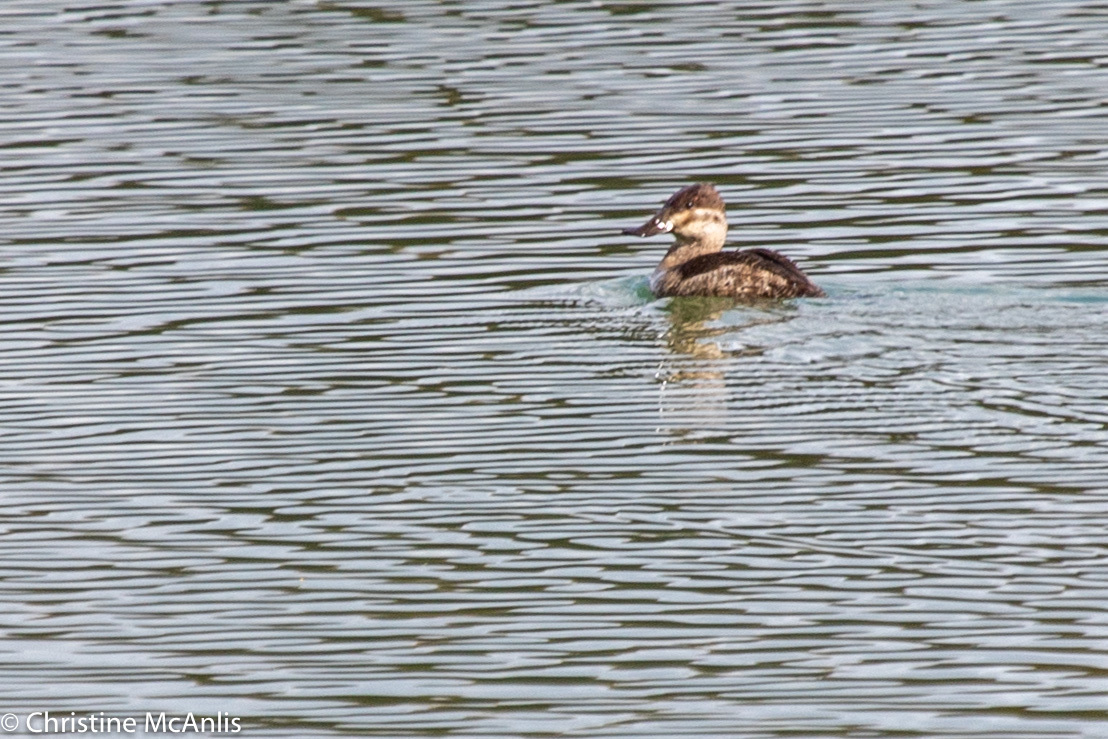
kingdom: Animalia
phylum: Chordata
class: Aves
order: Anseriformes
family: Anatidae
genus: Oxyura
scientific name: Oxyura jamaicensis
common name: Ruddy duck
